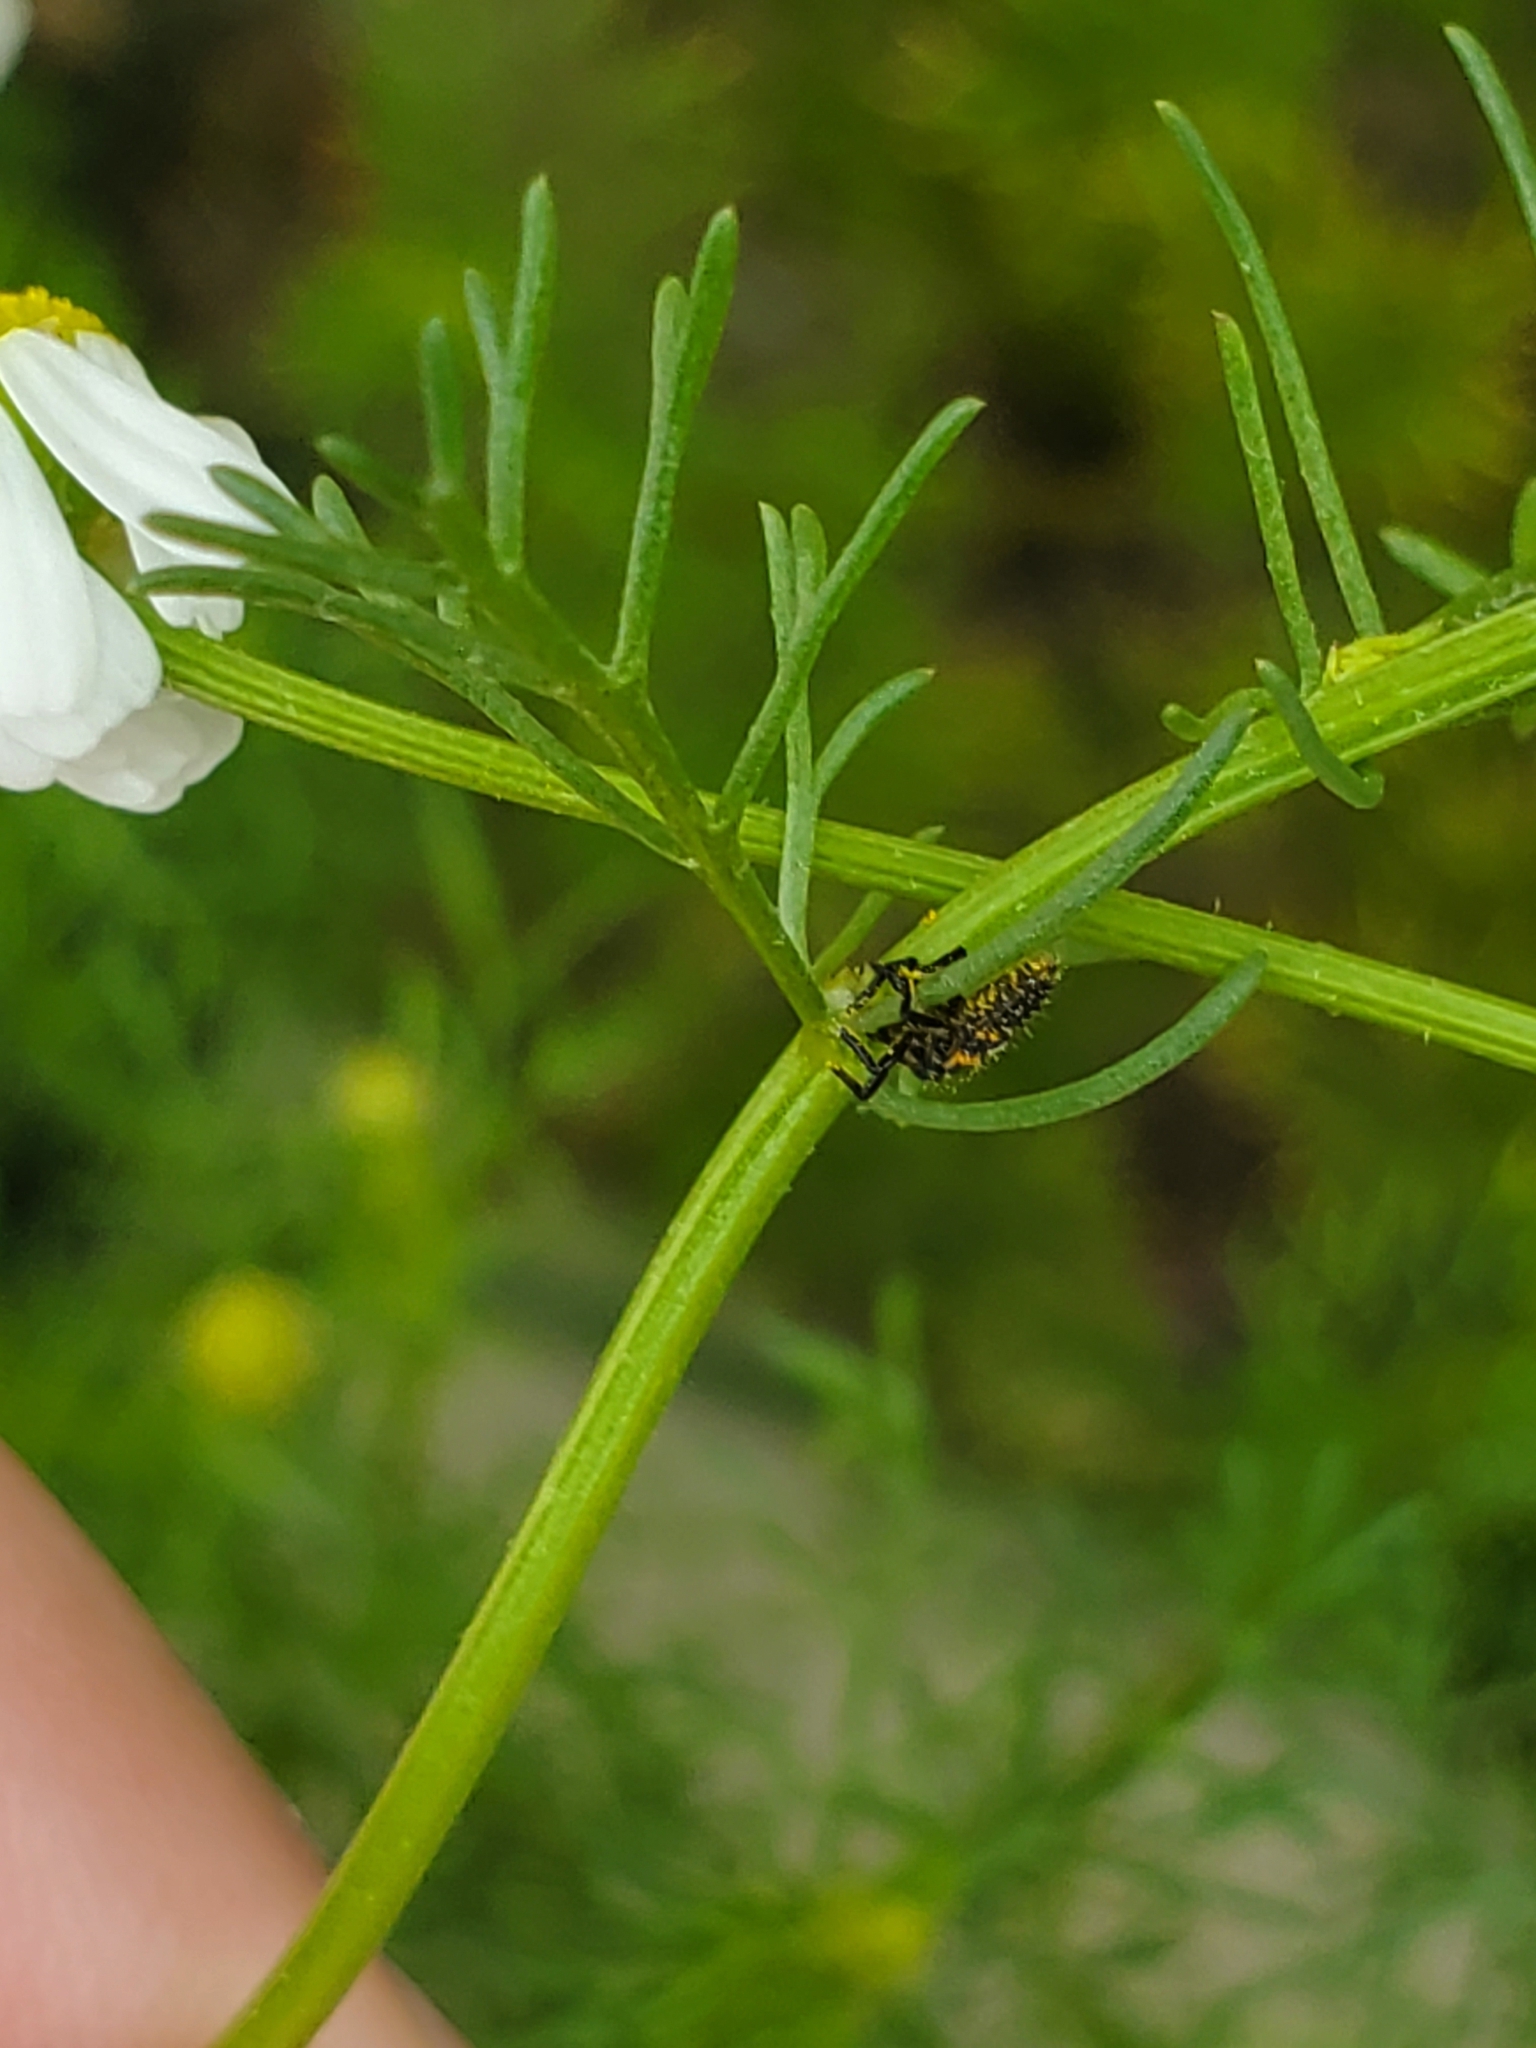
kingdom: Animalia
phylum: Arthropoda
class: Insecta
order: Coleoptera
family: Coccinellidae
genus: Coccinella
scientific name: Coccinella septempunctata
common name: Sevenspotted lady beetle
